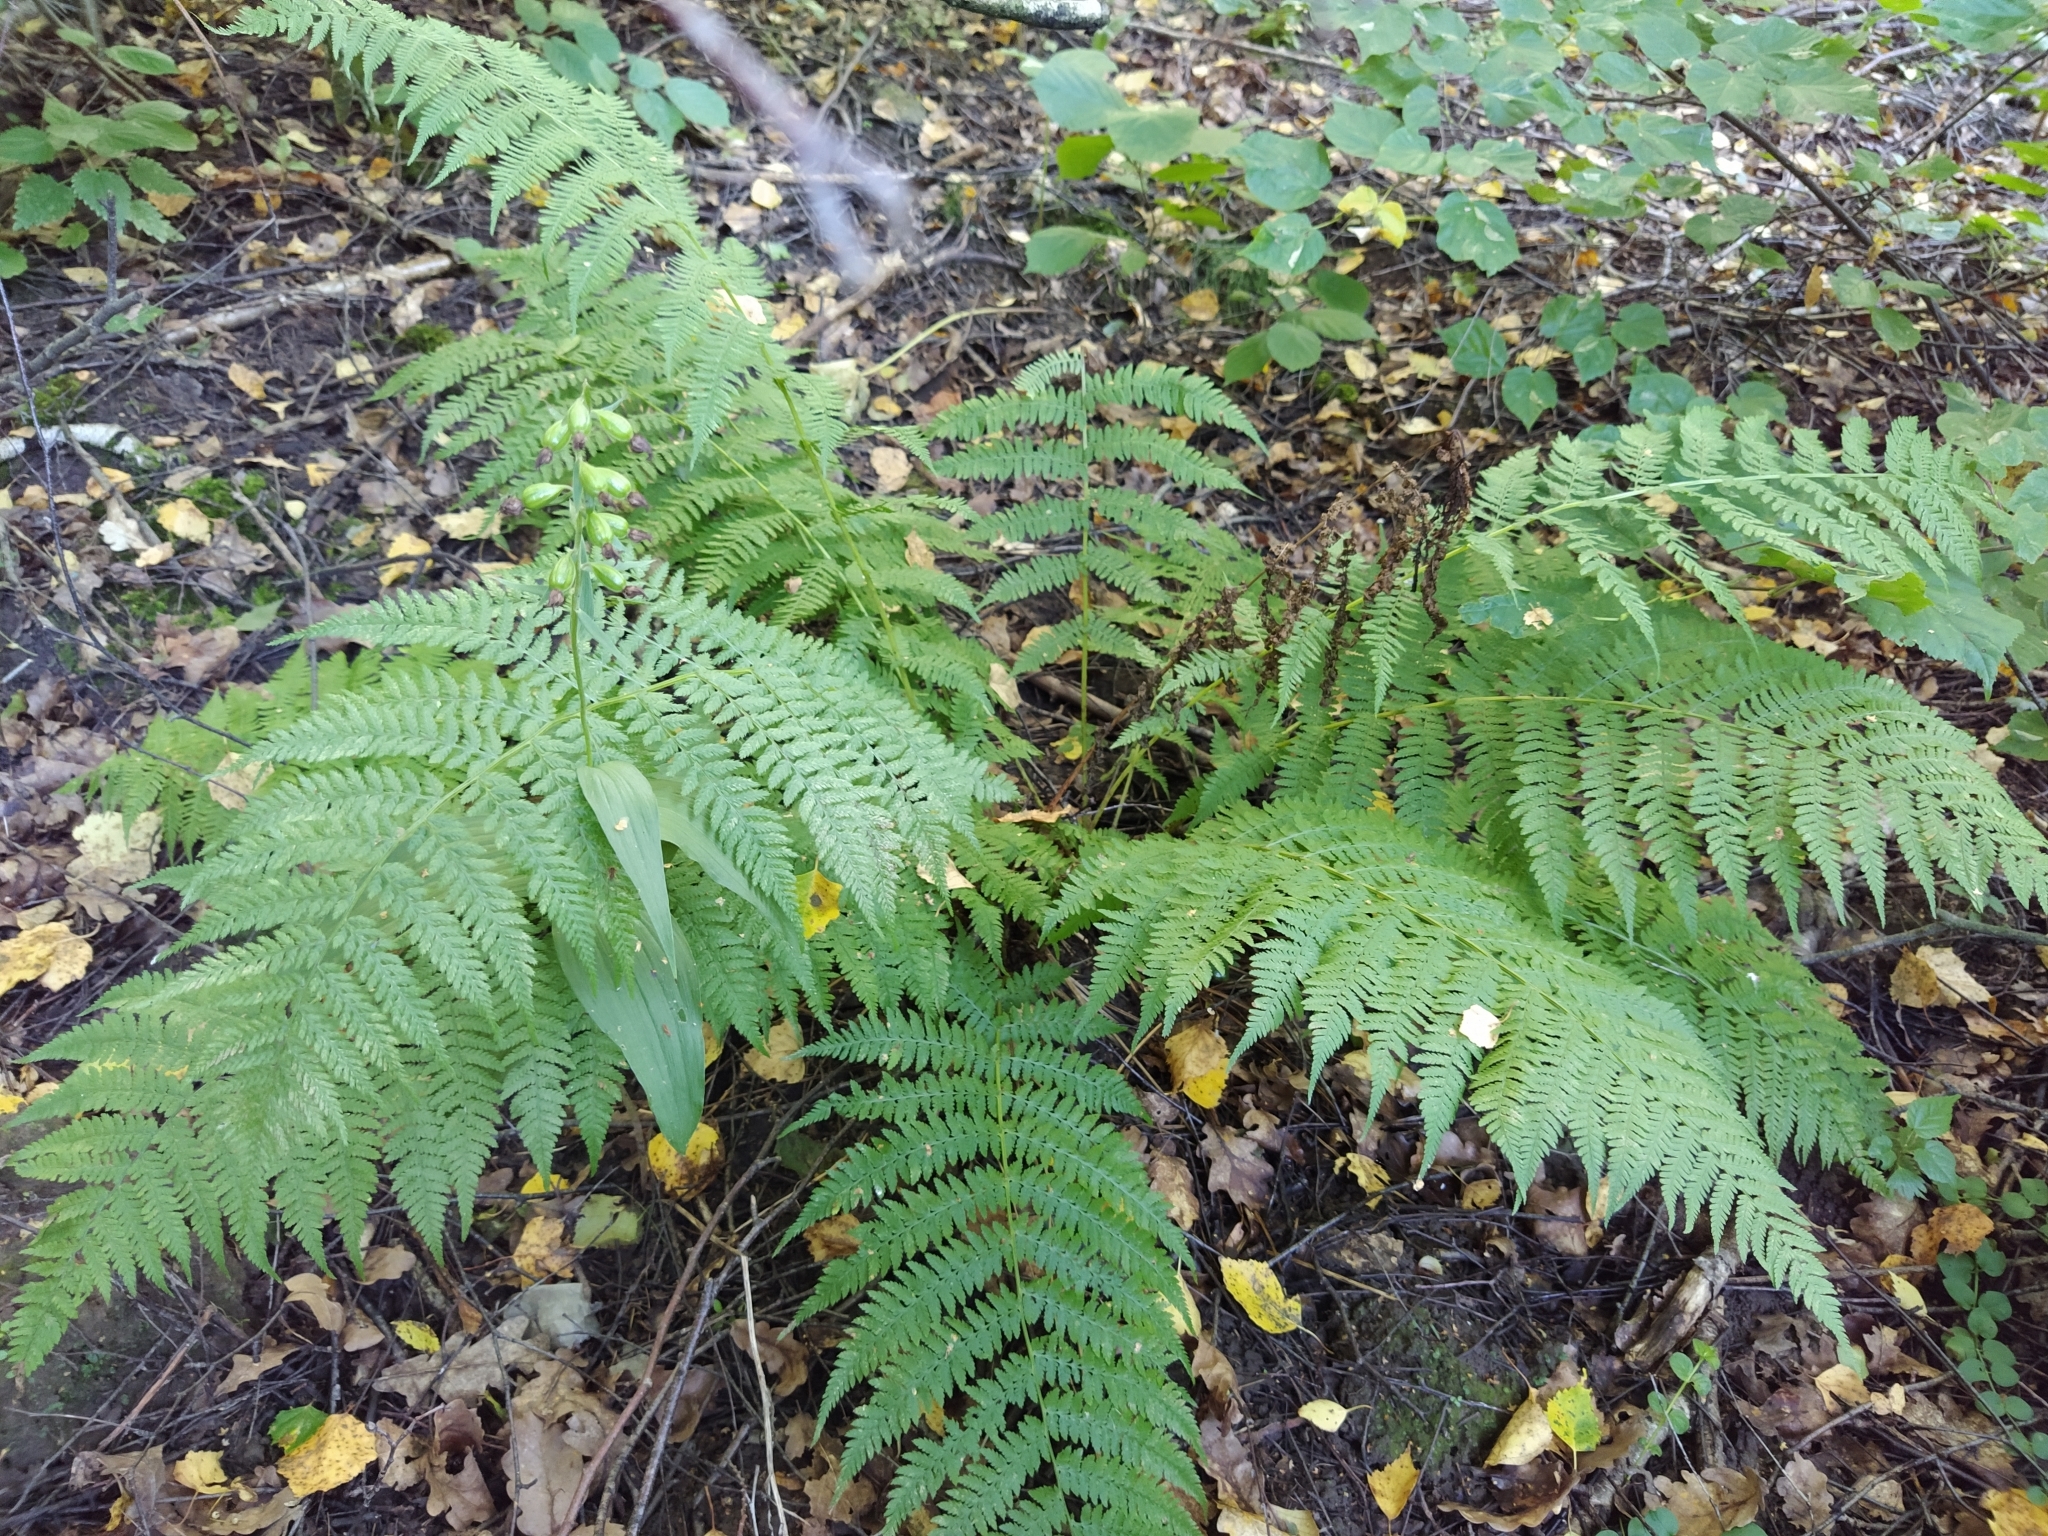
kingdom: Plantae
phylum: Tracheophyta
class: Polypodiopsida
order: Polypodiales
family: Athyriaceae
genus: Athyrium
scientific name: Athyrium filix-femina
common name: Lady fern
